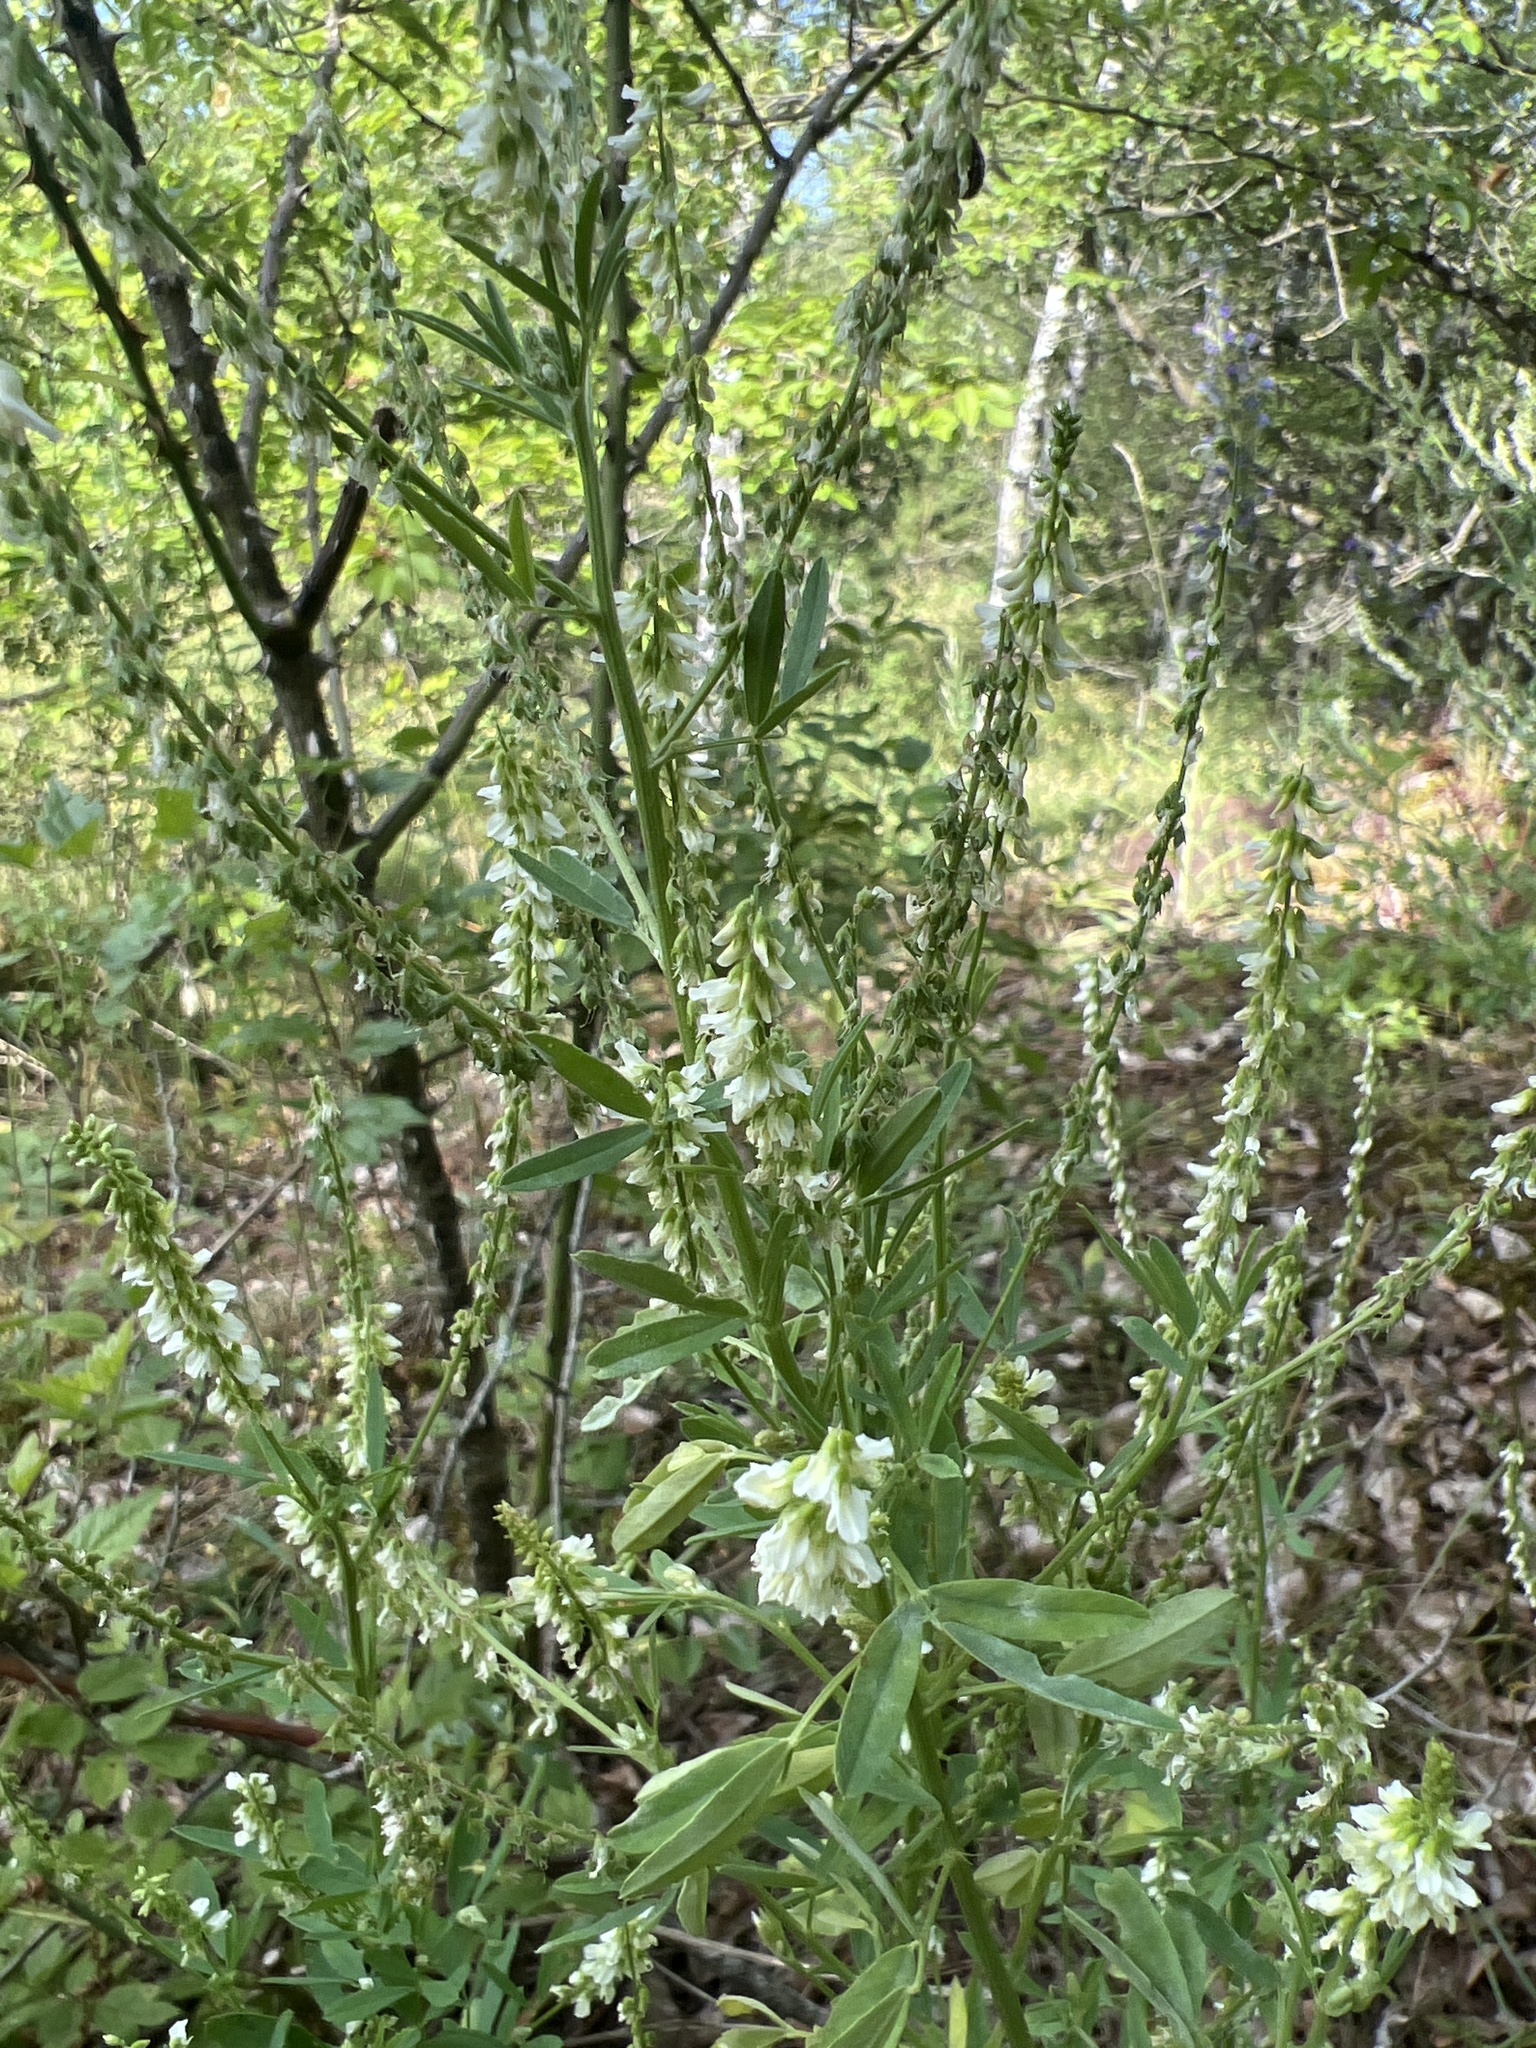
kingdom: Plantae
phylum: Tracheophyta
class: Magnoliopsida
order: Fabales
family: Fabaceae
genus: Melilotus
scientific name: Melilotus albus
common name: White melilot
